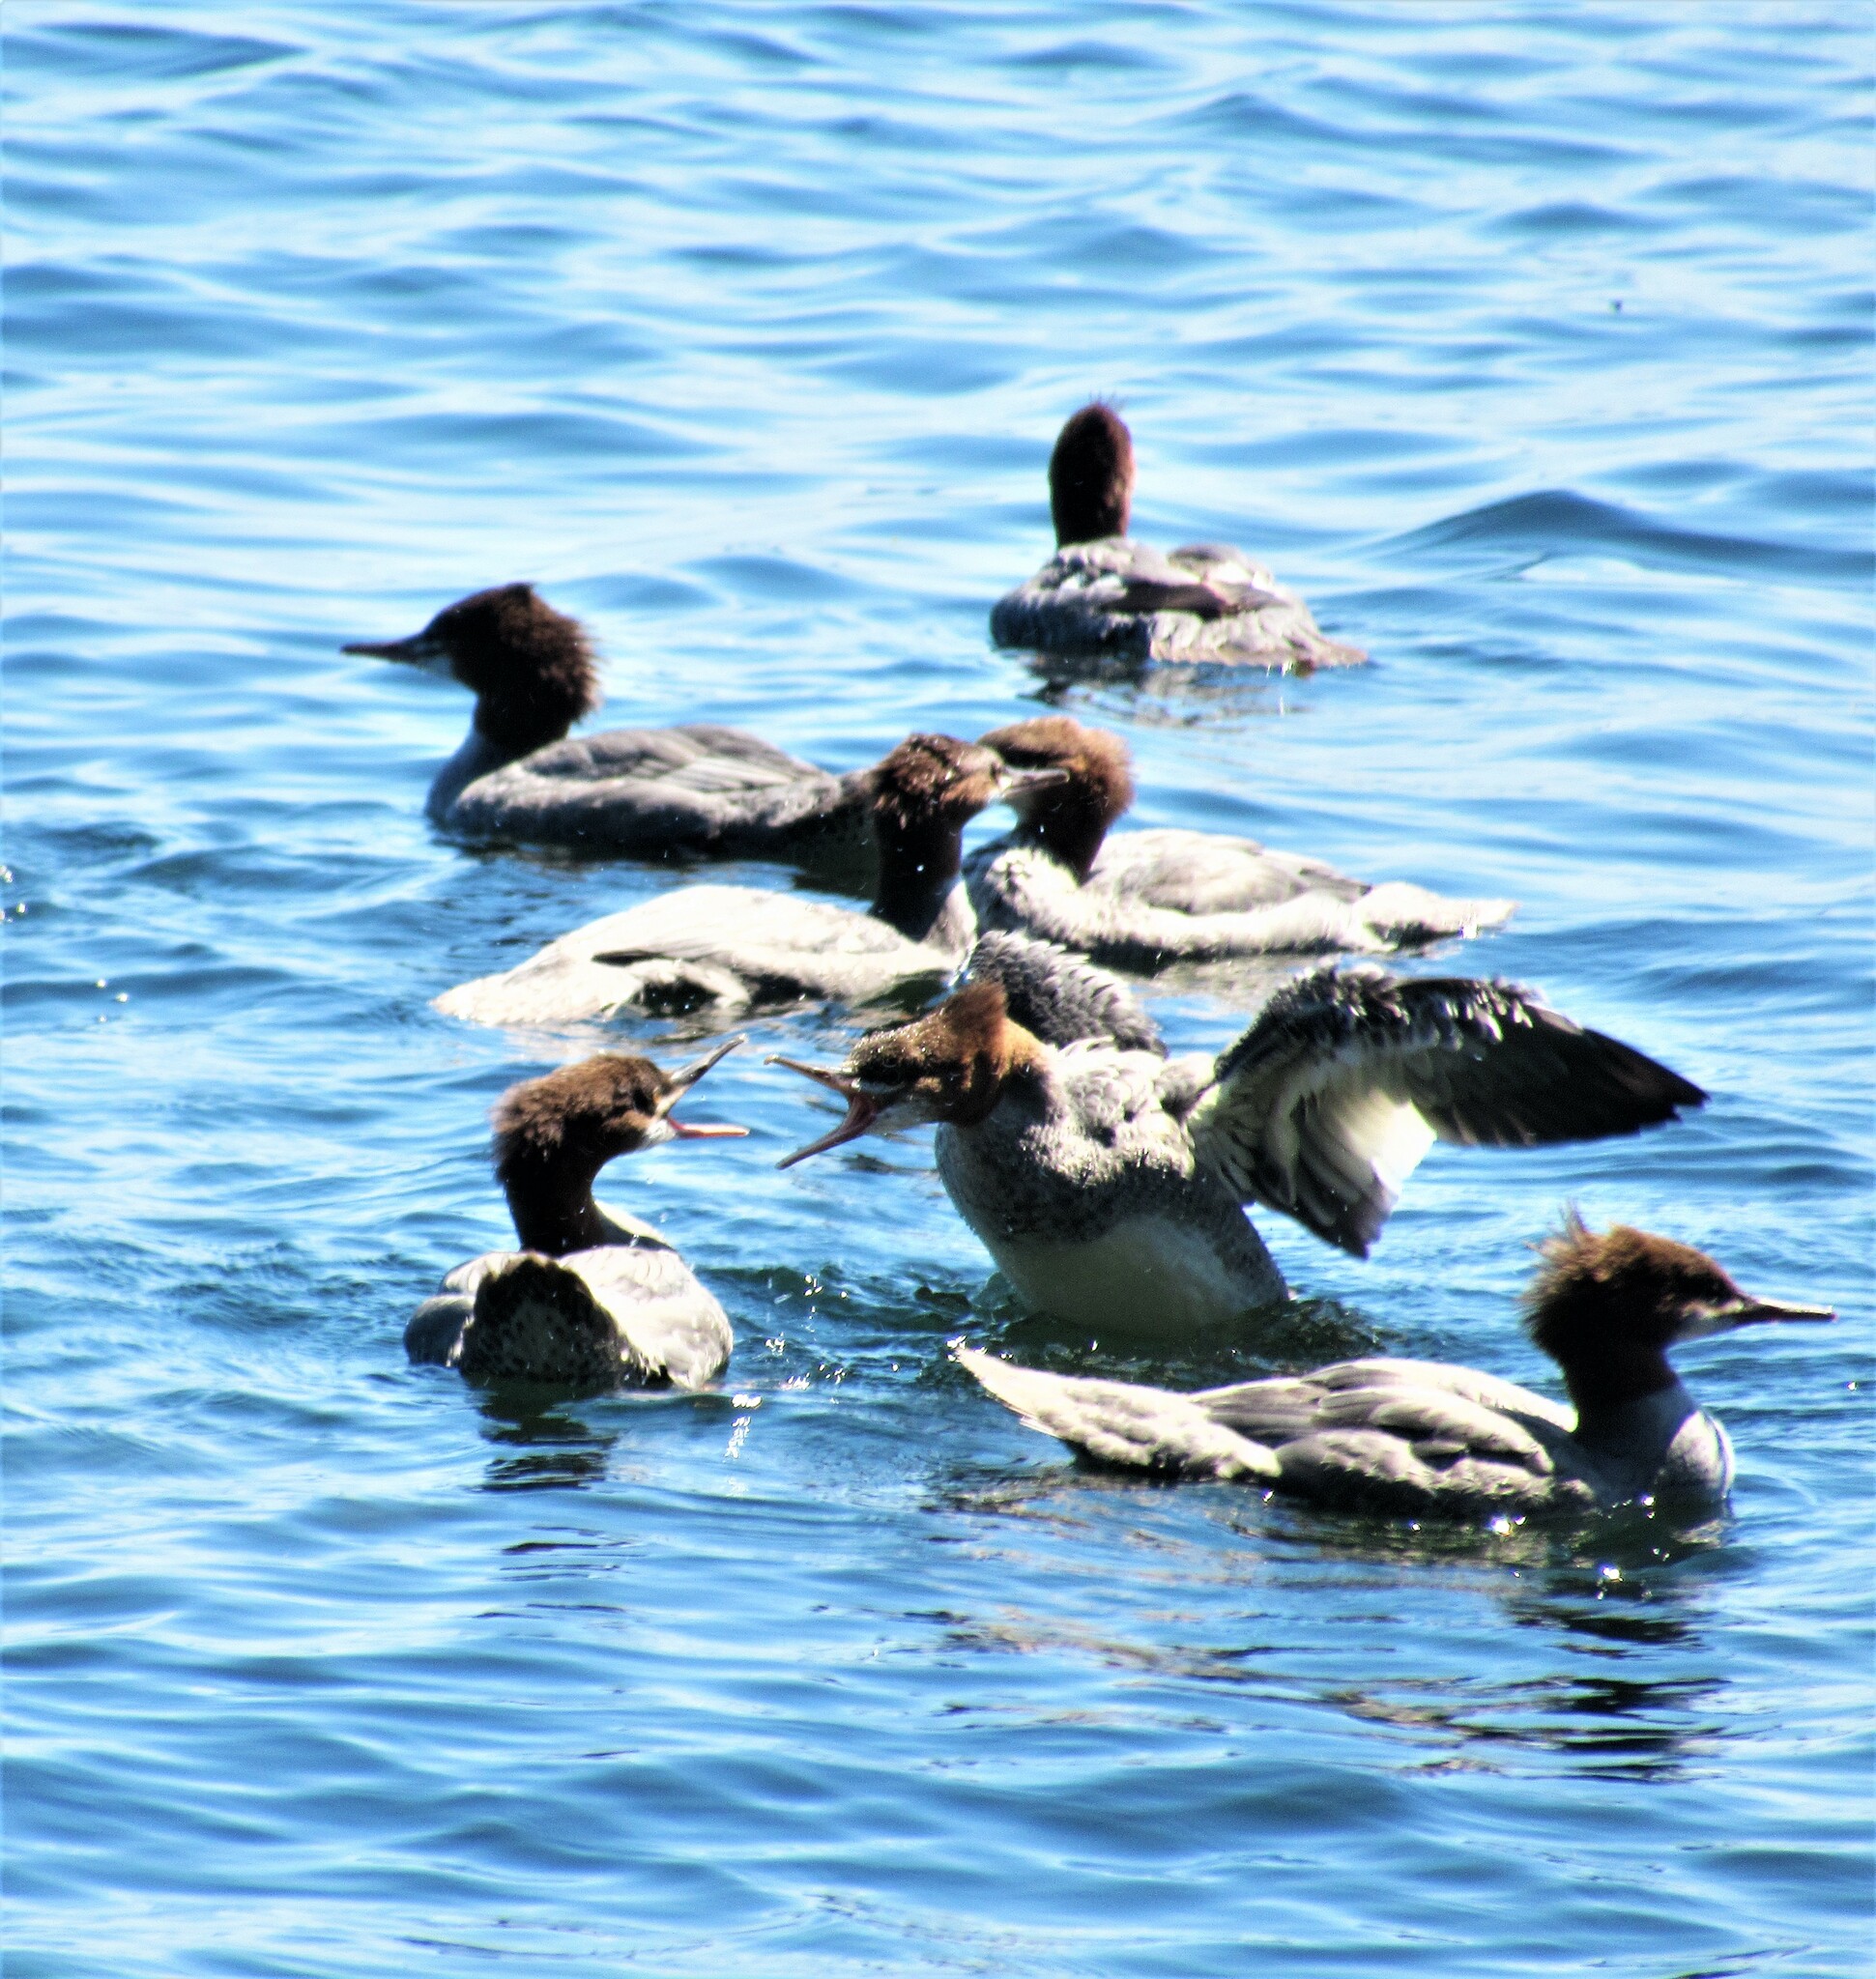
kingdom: Animalia
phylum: Chordata
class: Aves
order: Anseriformes
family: Anatidae
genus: Mergus
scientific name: Mergus merganser
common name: Common merganser
